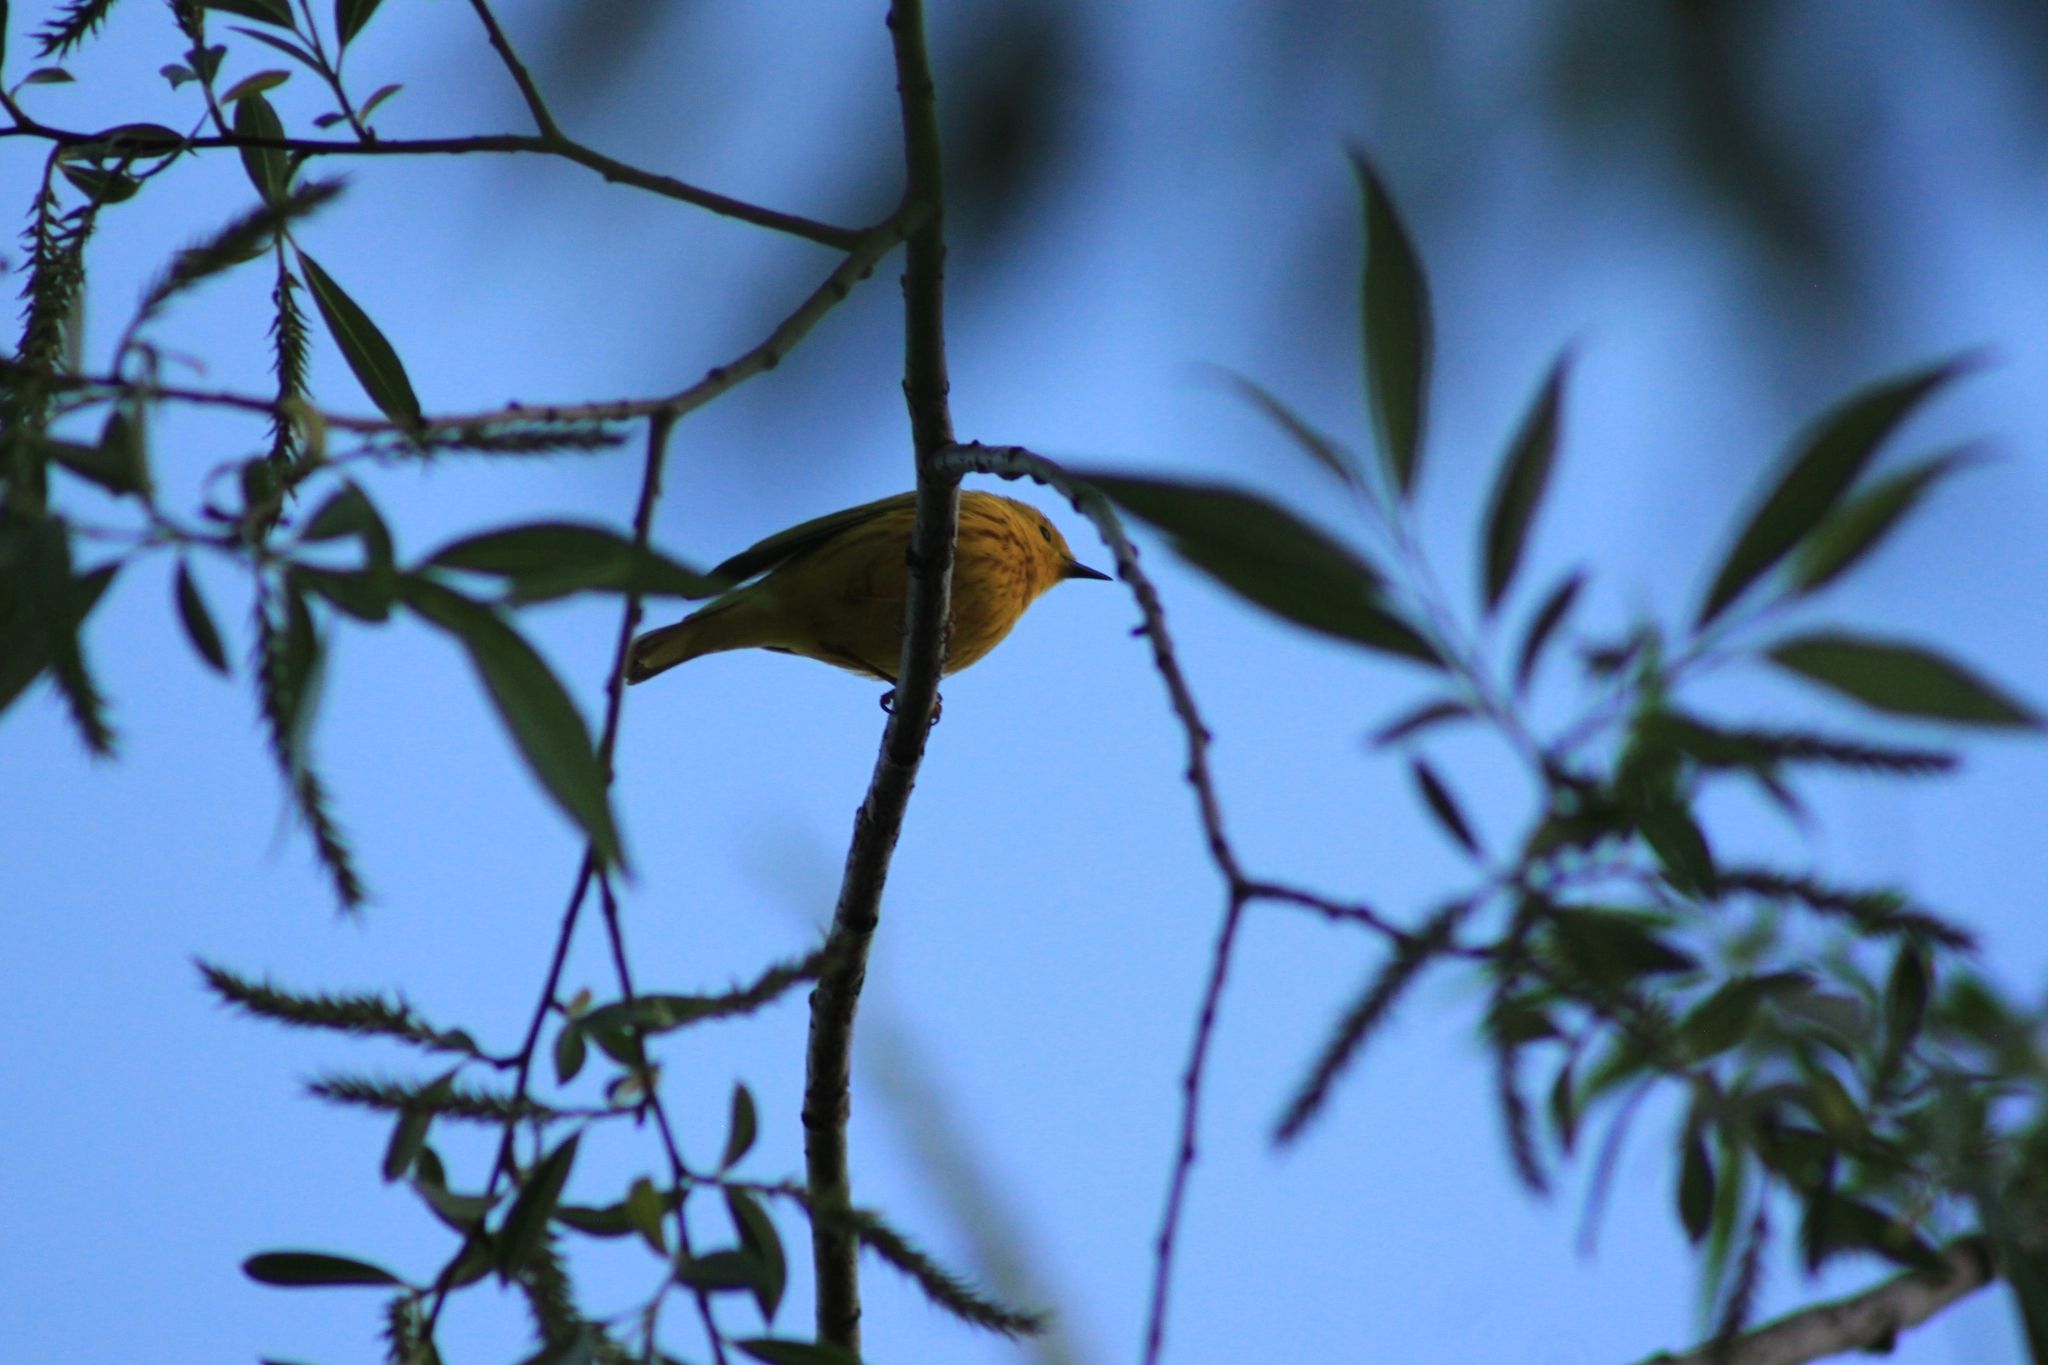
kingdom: Animalia
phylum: Chordata
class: Aves
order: Passeriformes
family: Parulidae
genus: Setophaga
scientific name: Setophaga petechia
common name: Yellow warbler
